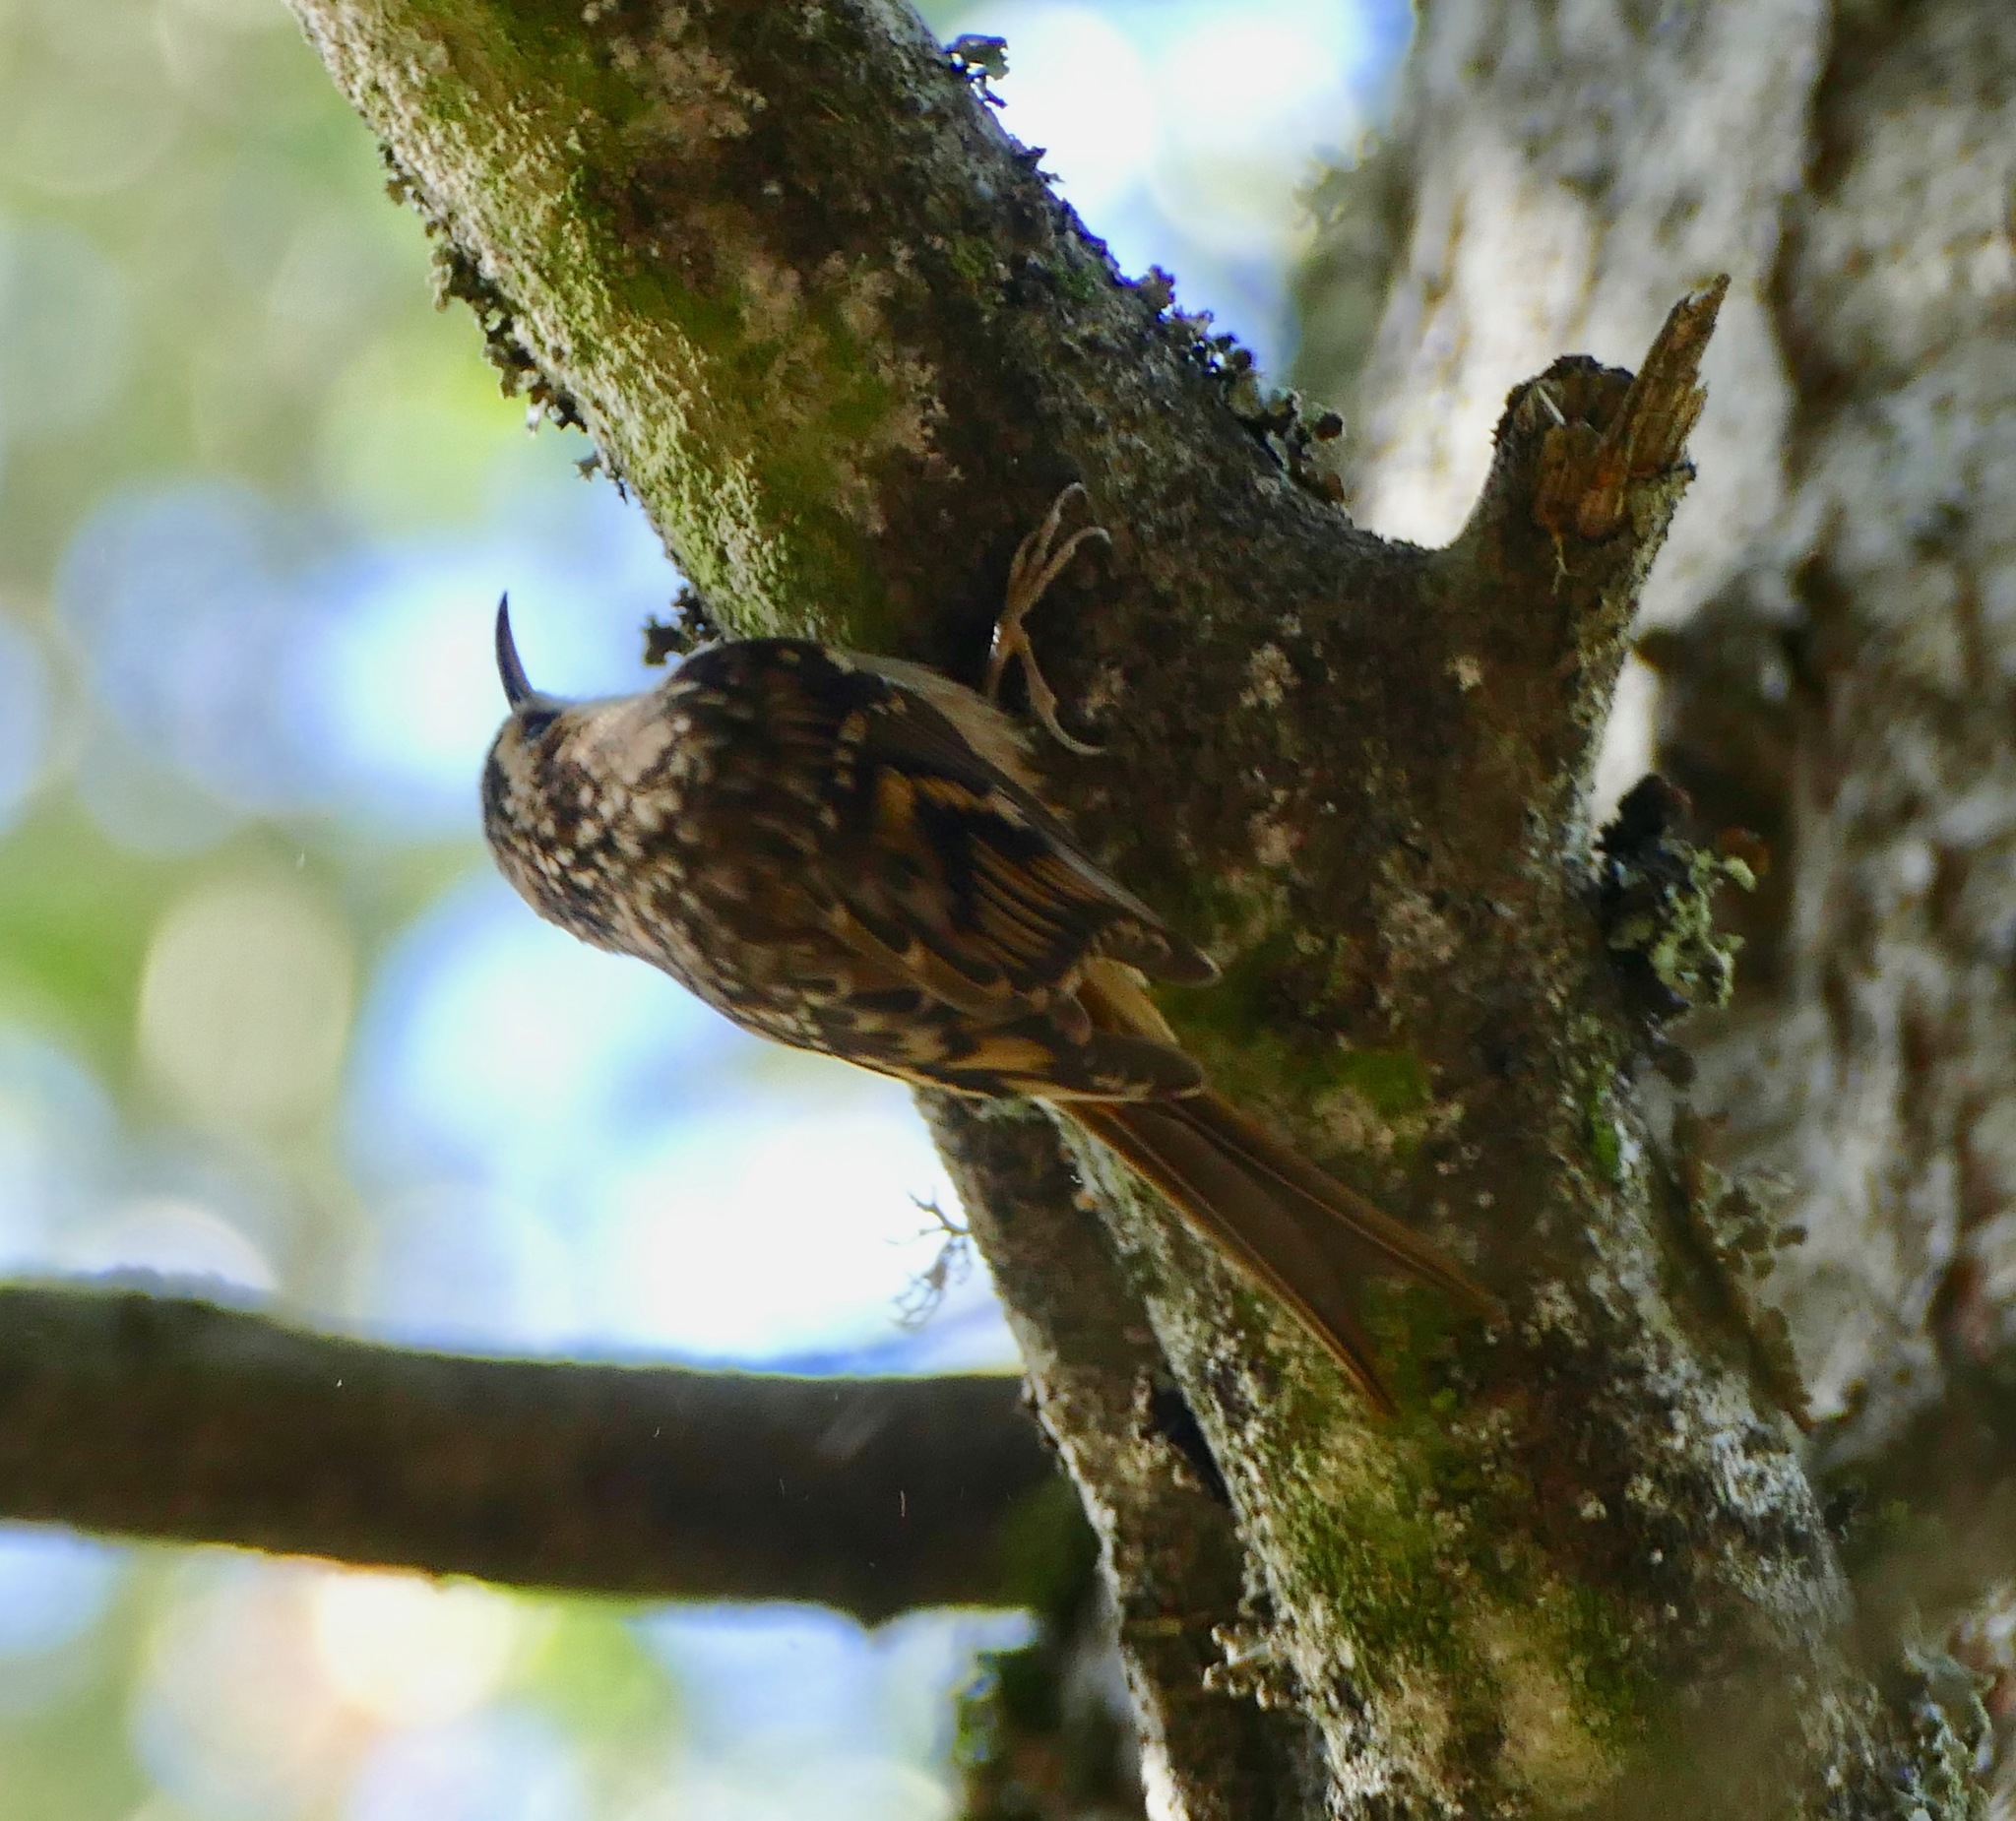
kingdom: Animalia
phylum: Chordata
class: Aves
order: Passeriformes
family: Certhiidae
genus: Certhia
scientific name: Certhia americana
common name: Brown creeper
